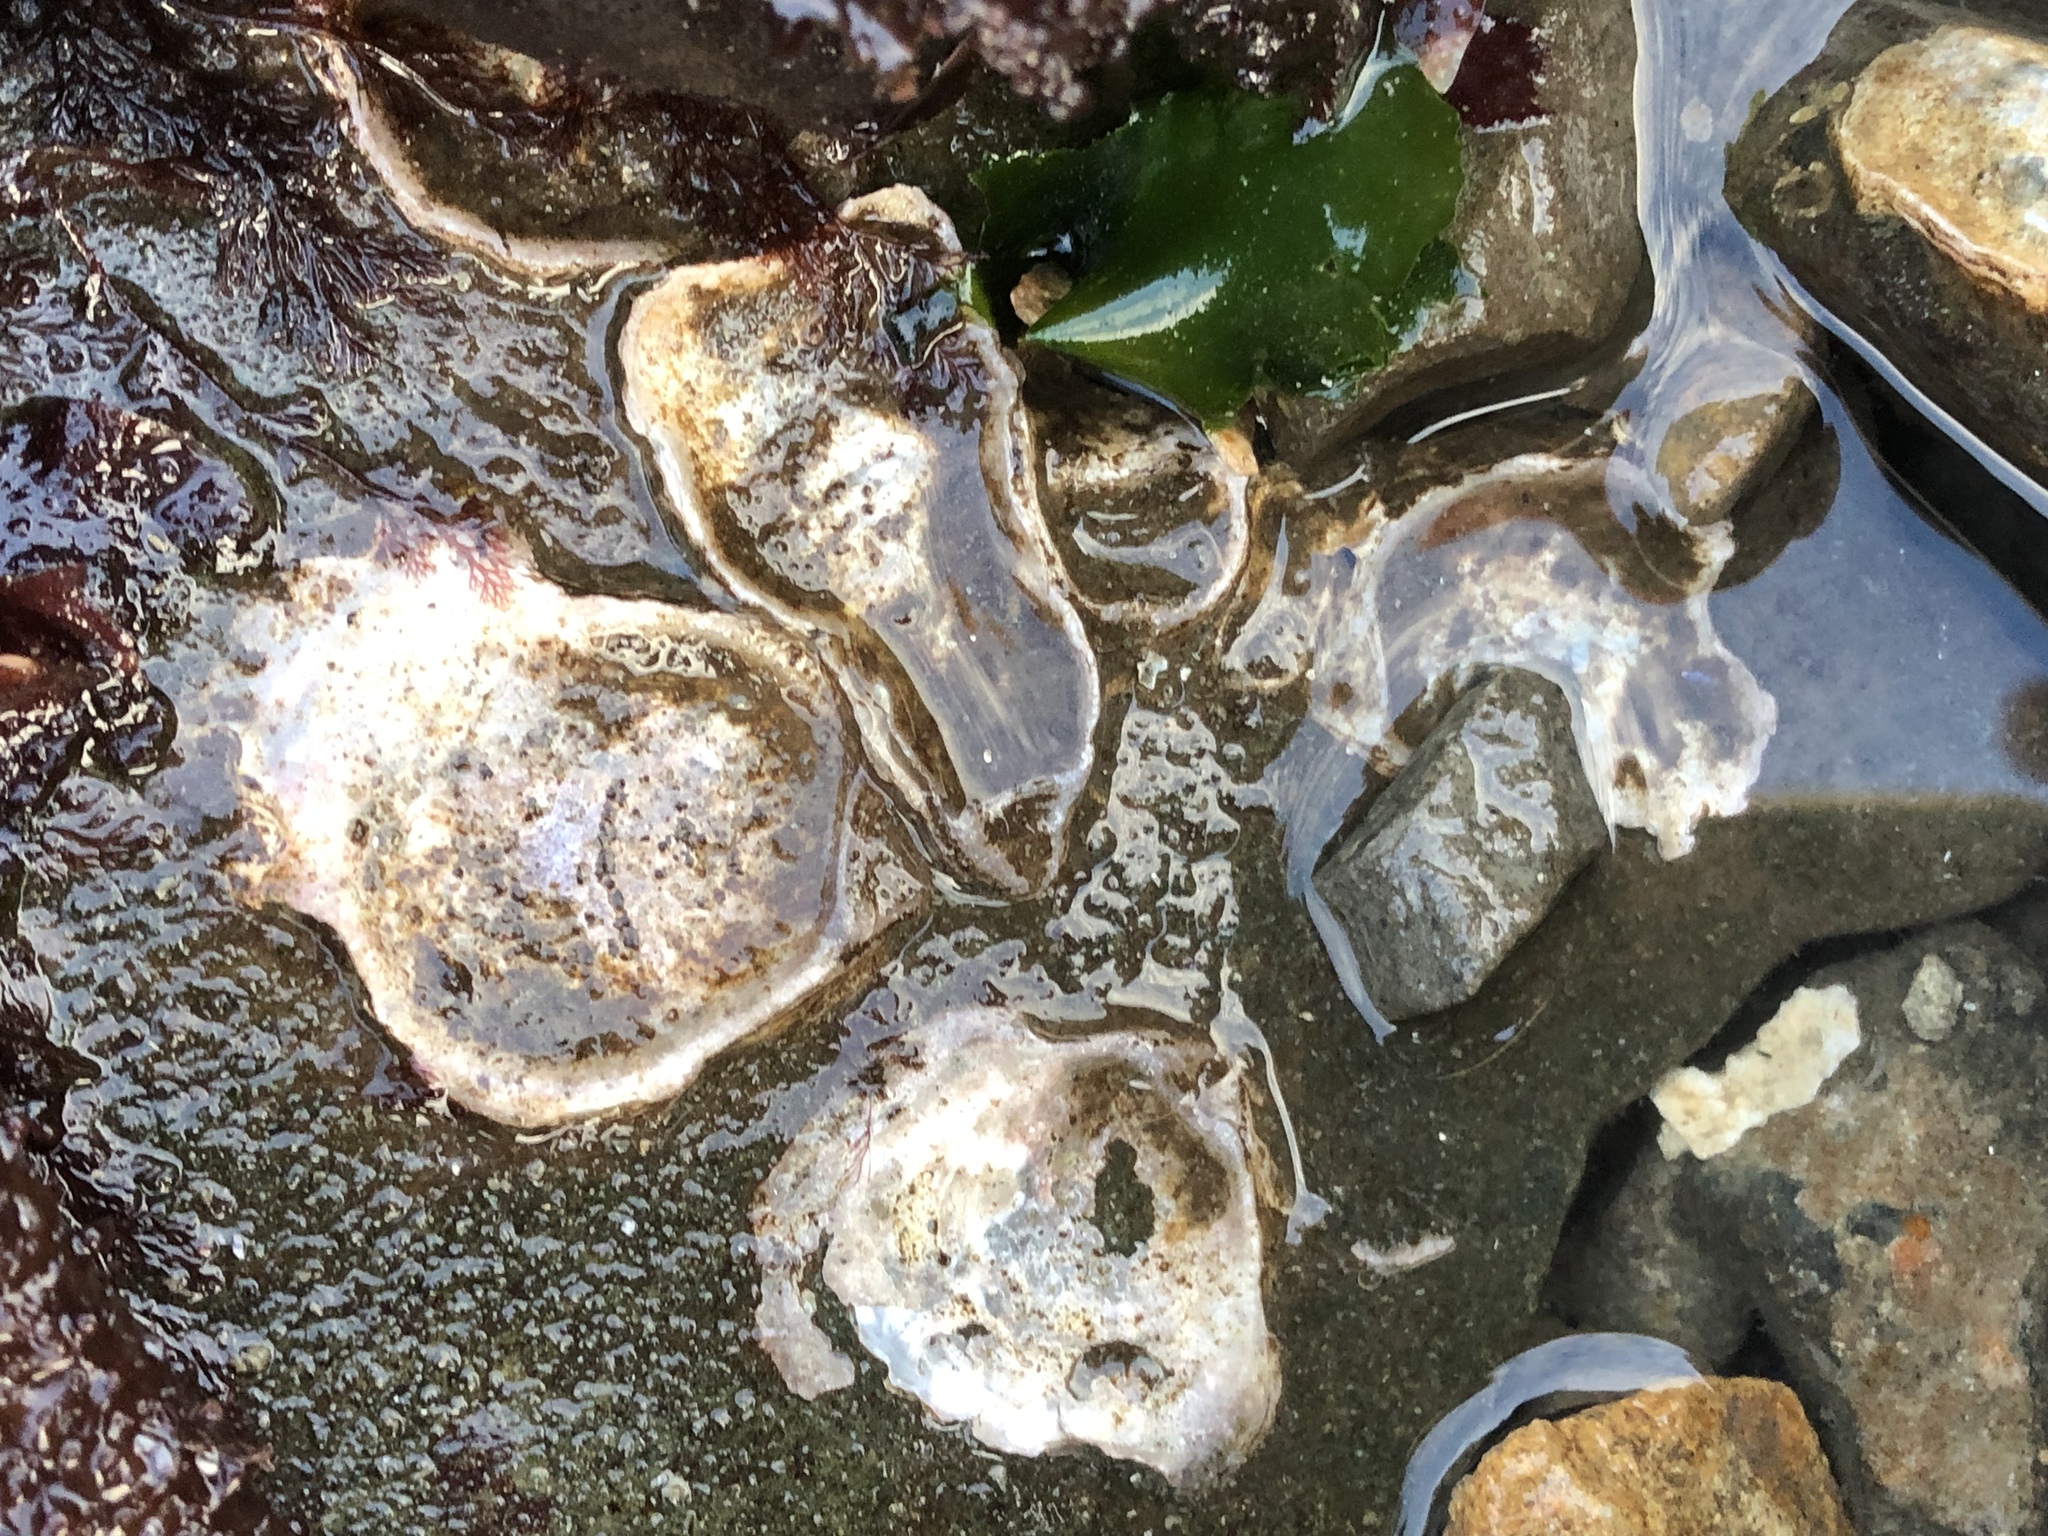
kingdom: Animalia
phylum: Mollusca
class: Bivalvia
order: Ostreida
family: Ostreidae
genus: Ostrea
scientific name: Ostrea lurida
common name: Olympia flat oyster
